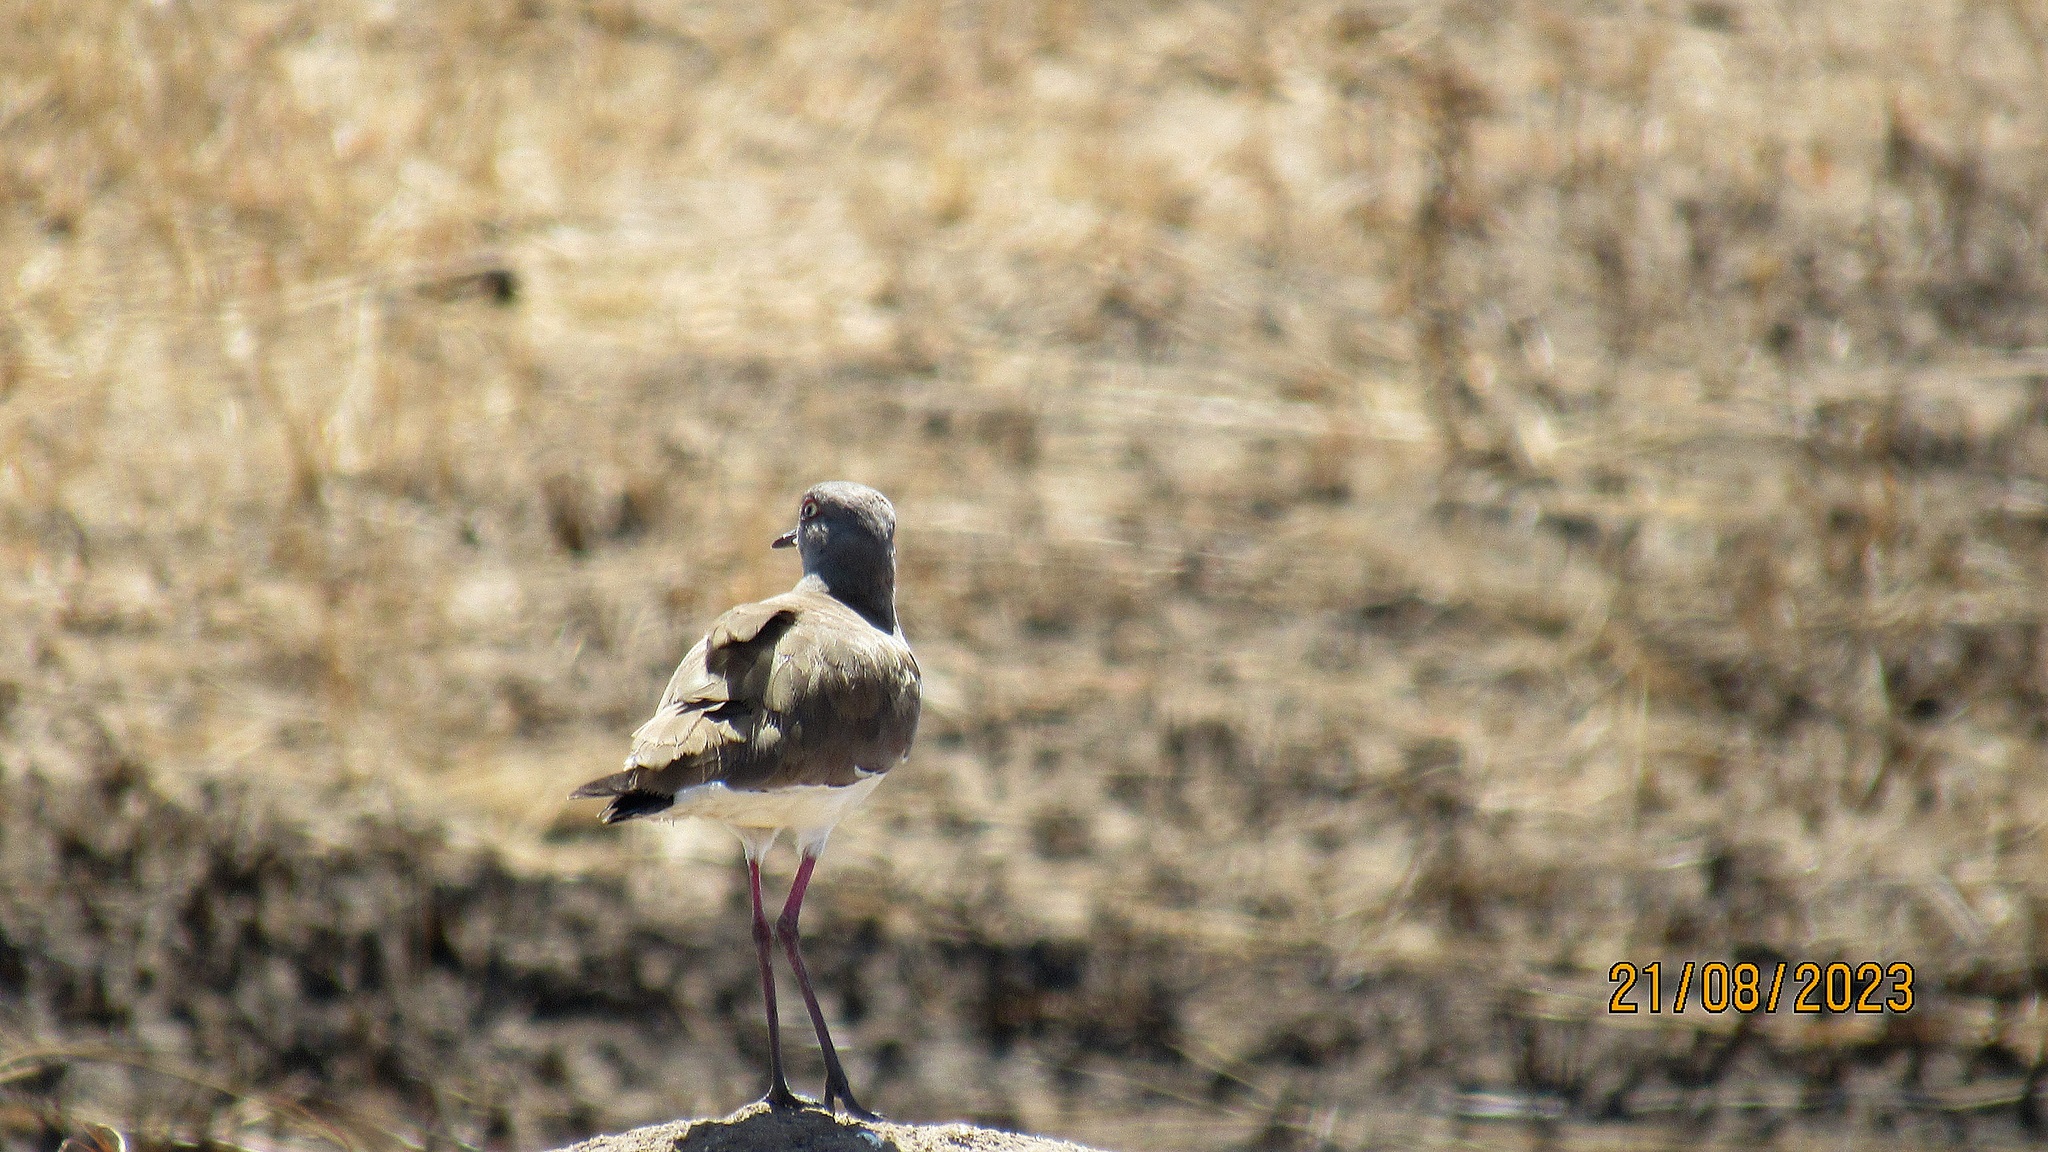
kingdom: Animalia
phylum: Chordata
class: Aves
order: Charadriiformes
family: Charadriidae
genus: Vanellus
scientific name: Vanellus melanopterus
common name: Black-winged lapwing
